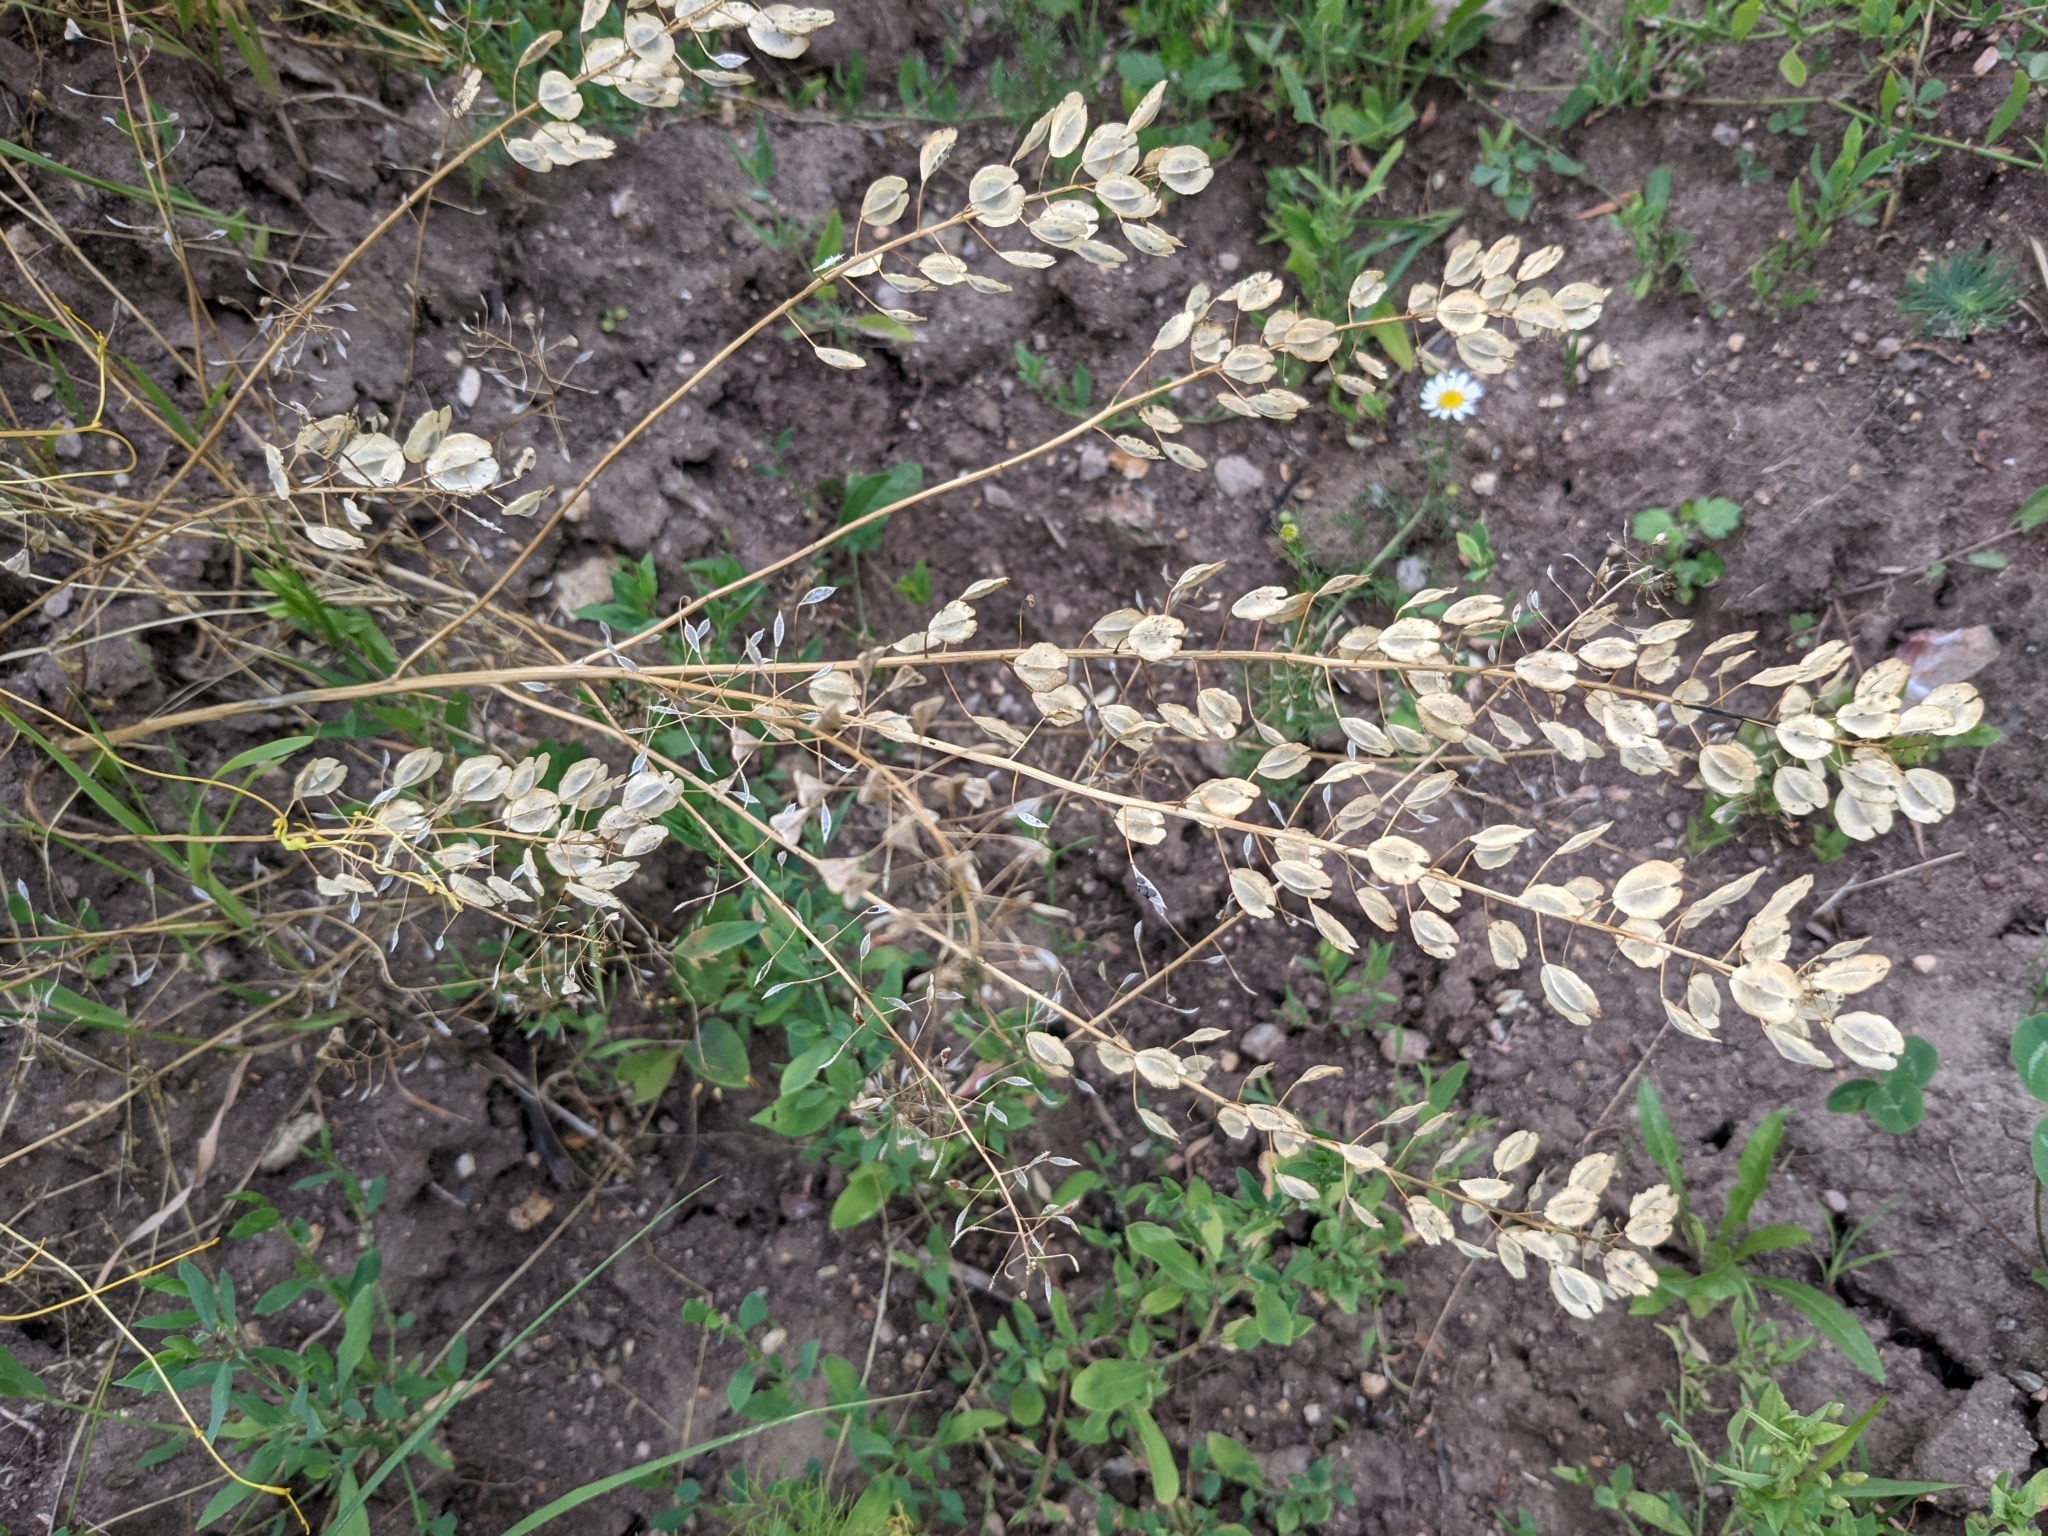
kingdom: Plantae
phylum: Tracheophyta
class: Magnoliopsida
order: Brassicales
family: Brassicaceae
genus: Thlaspi
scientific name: Thlaspi arvense
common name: Field pennycress
